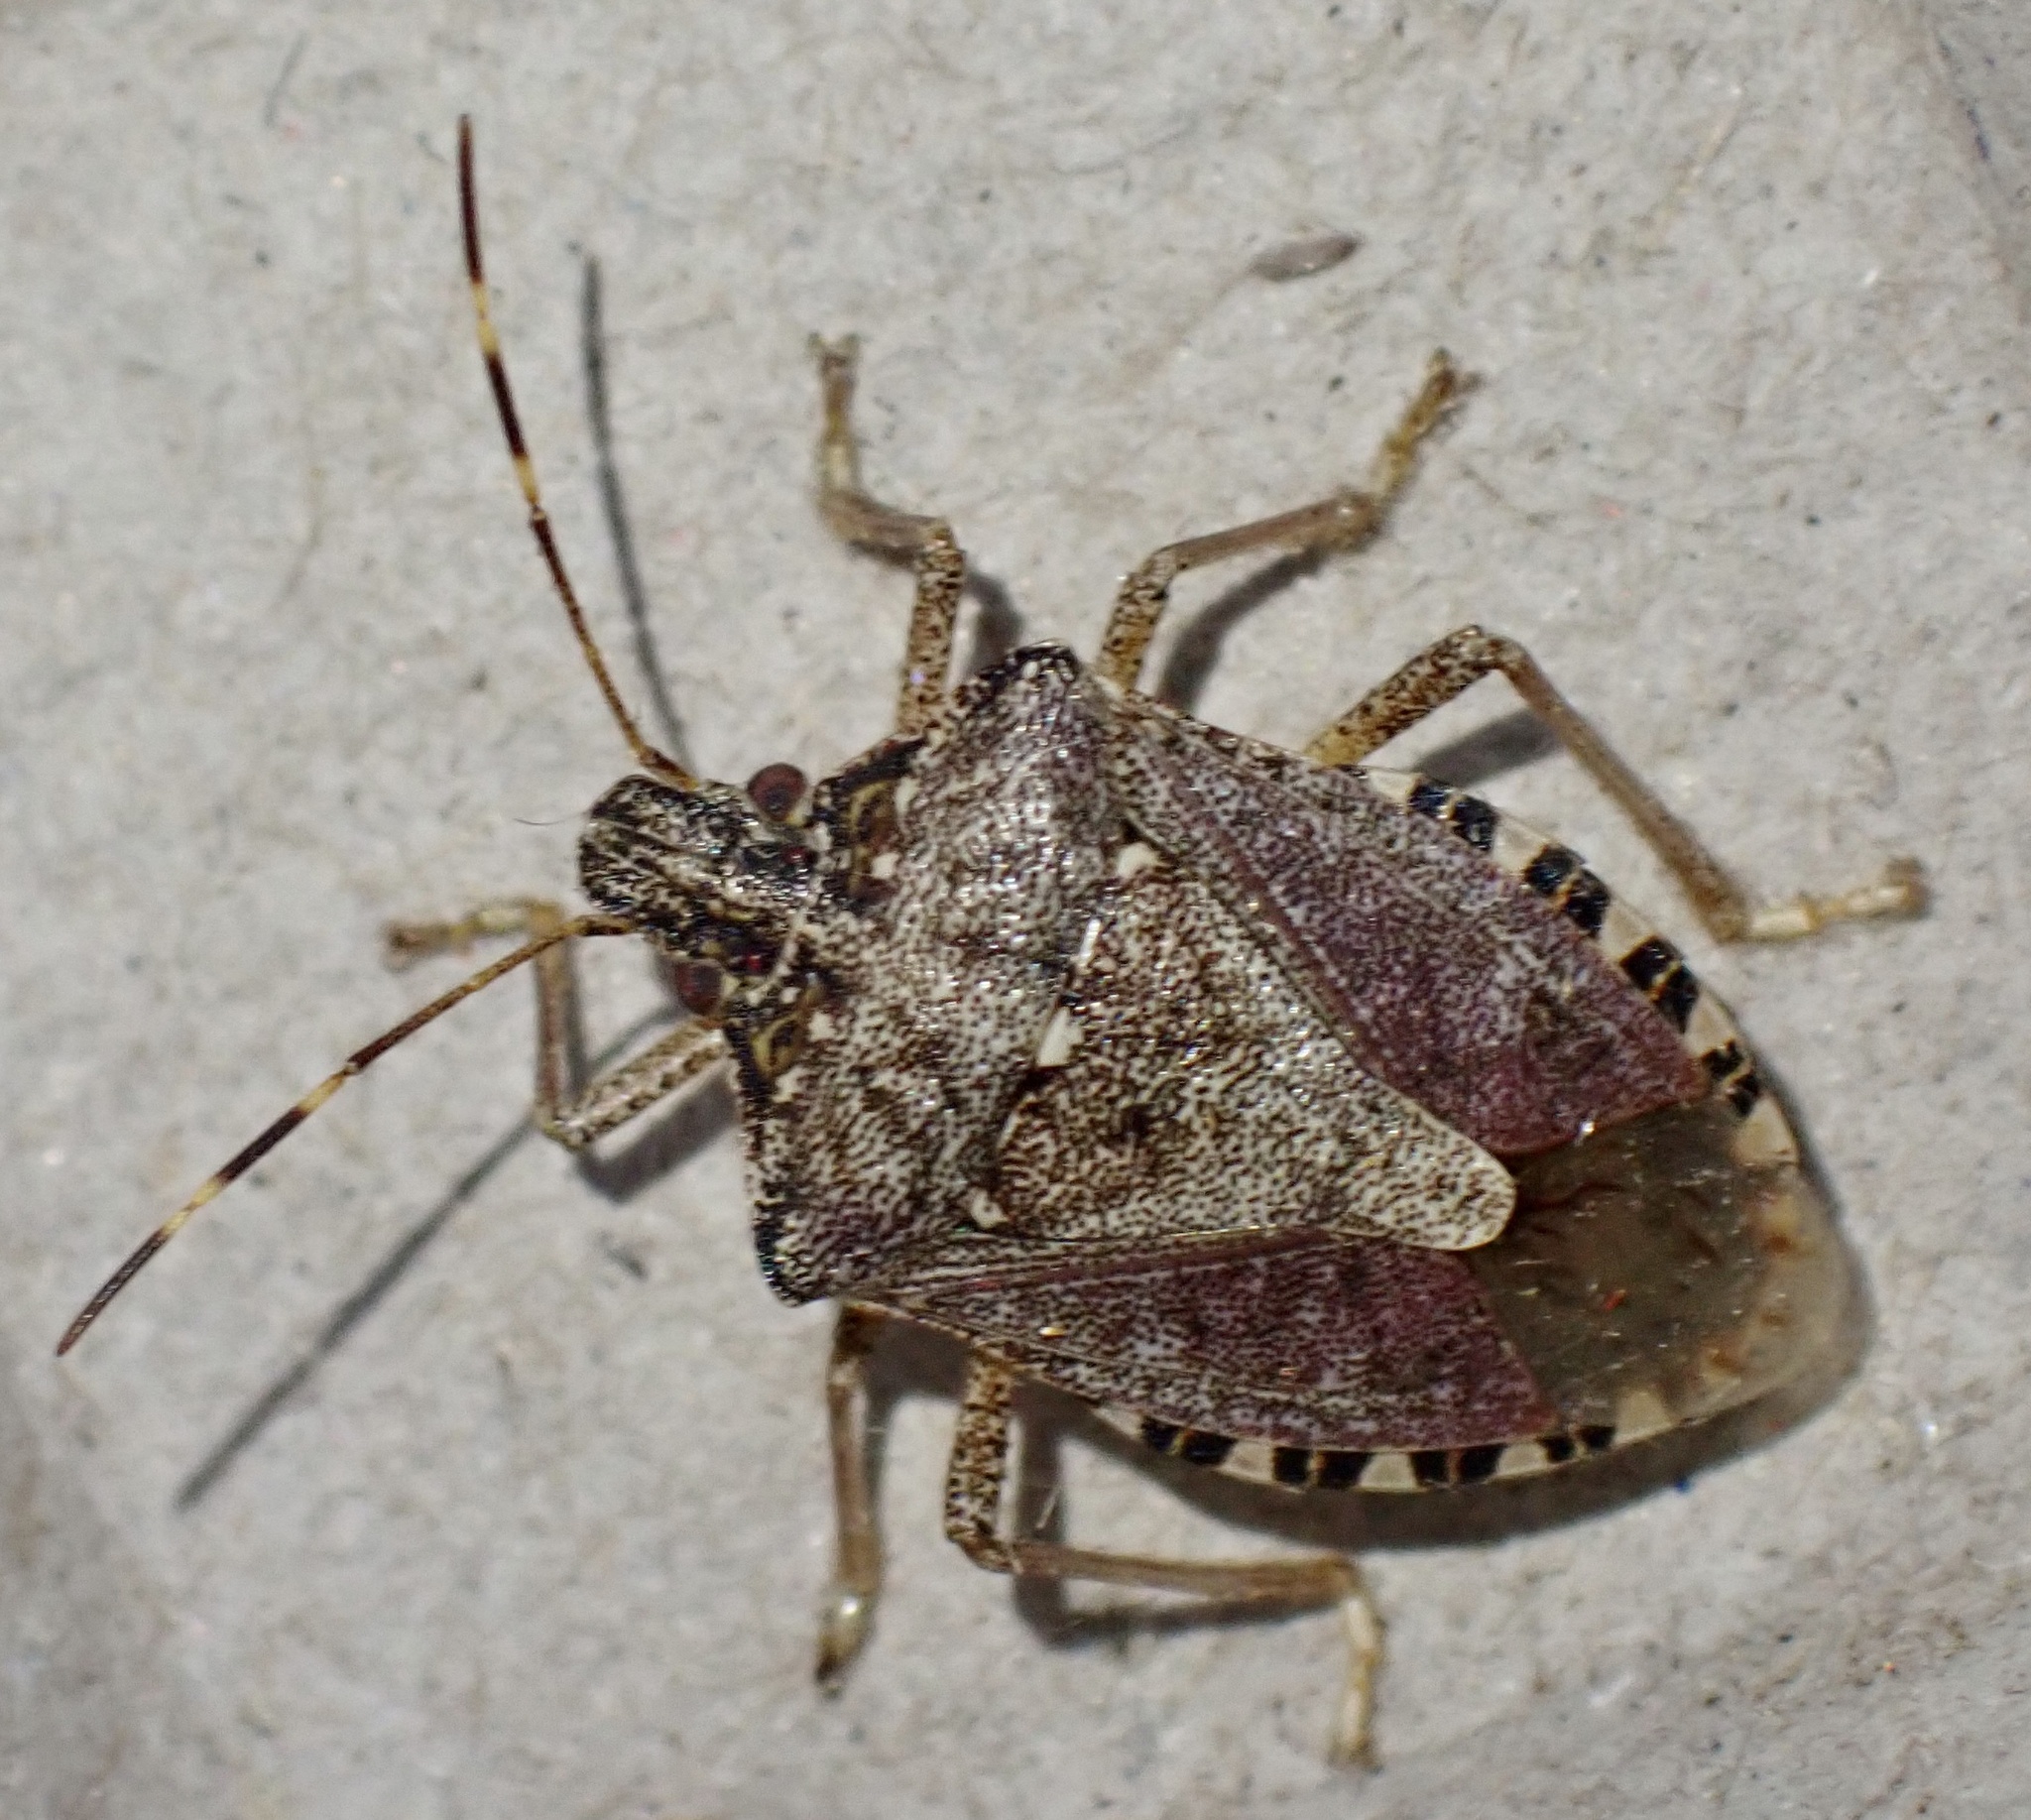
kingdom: Animalia
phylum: Arthropoda
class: Insecta
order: Hemiptera
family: Pentatomidae
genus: Halyomorpha
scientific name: Halyomorpha halys
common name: Brown marmorated stink bug
